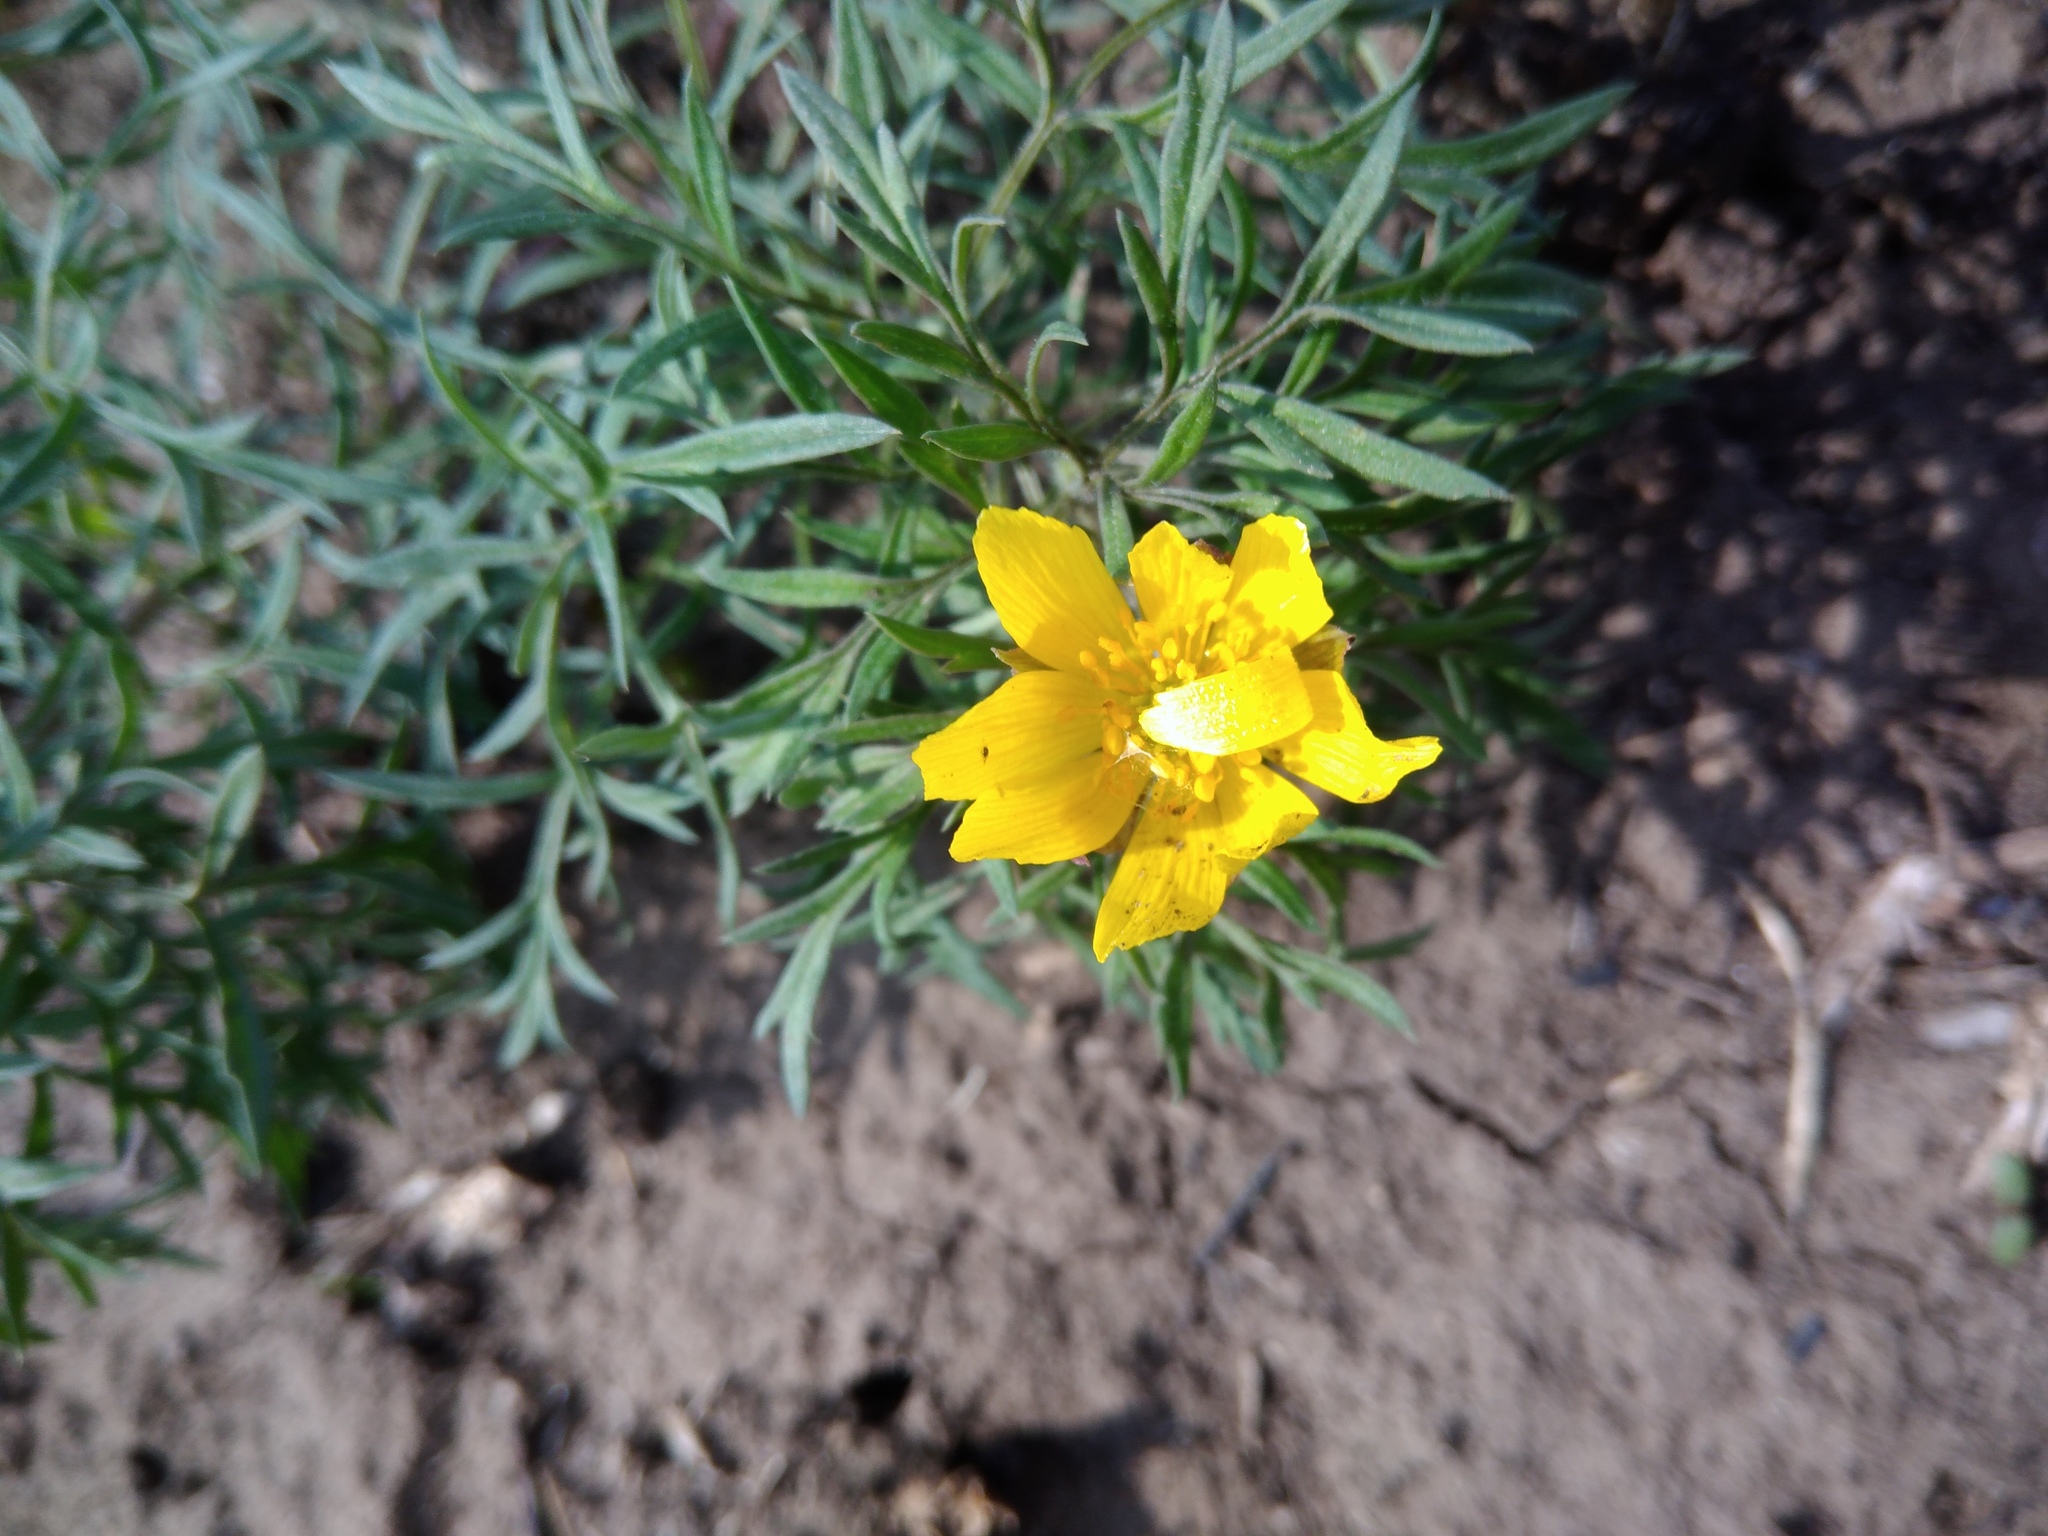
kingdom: Plantae
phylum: Tracheophyta
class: Magnoliopsida
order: Ranunculales
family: Ranunculaceae
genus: Adonis
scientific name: Adonis volgensis
